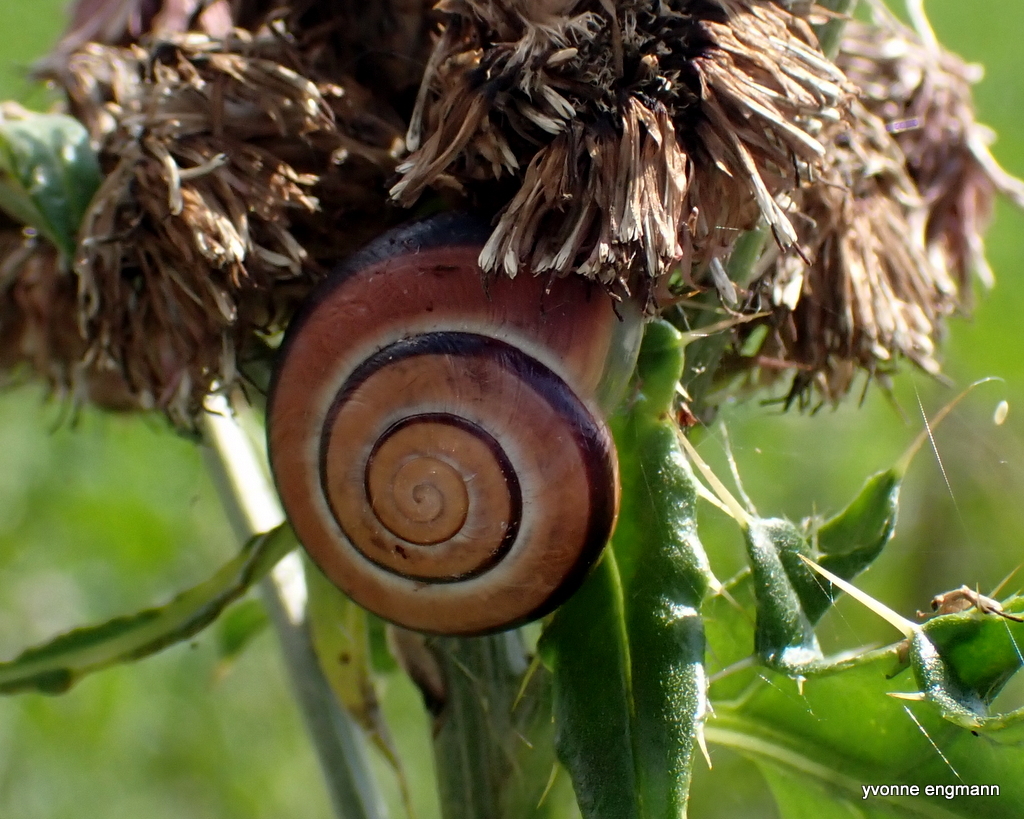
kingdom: Animalia
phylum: Mollusca
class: Gastropoda
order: Stylommatophora
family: Helicidae
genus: Cepaea
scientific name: Cepaea nemoralis
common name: Grovesnail
